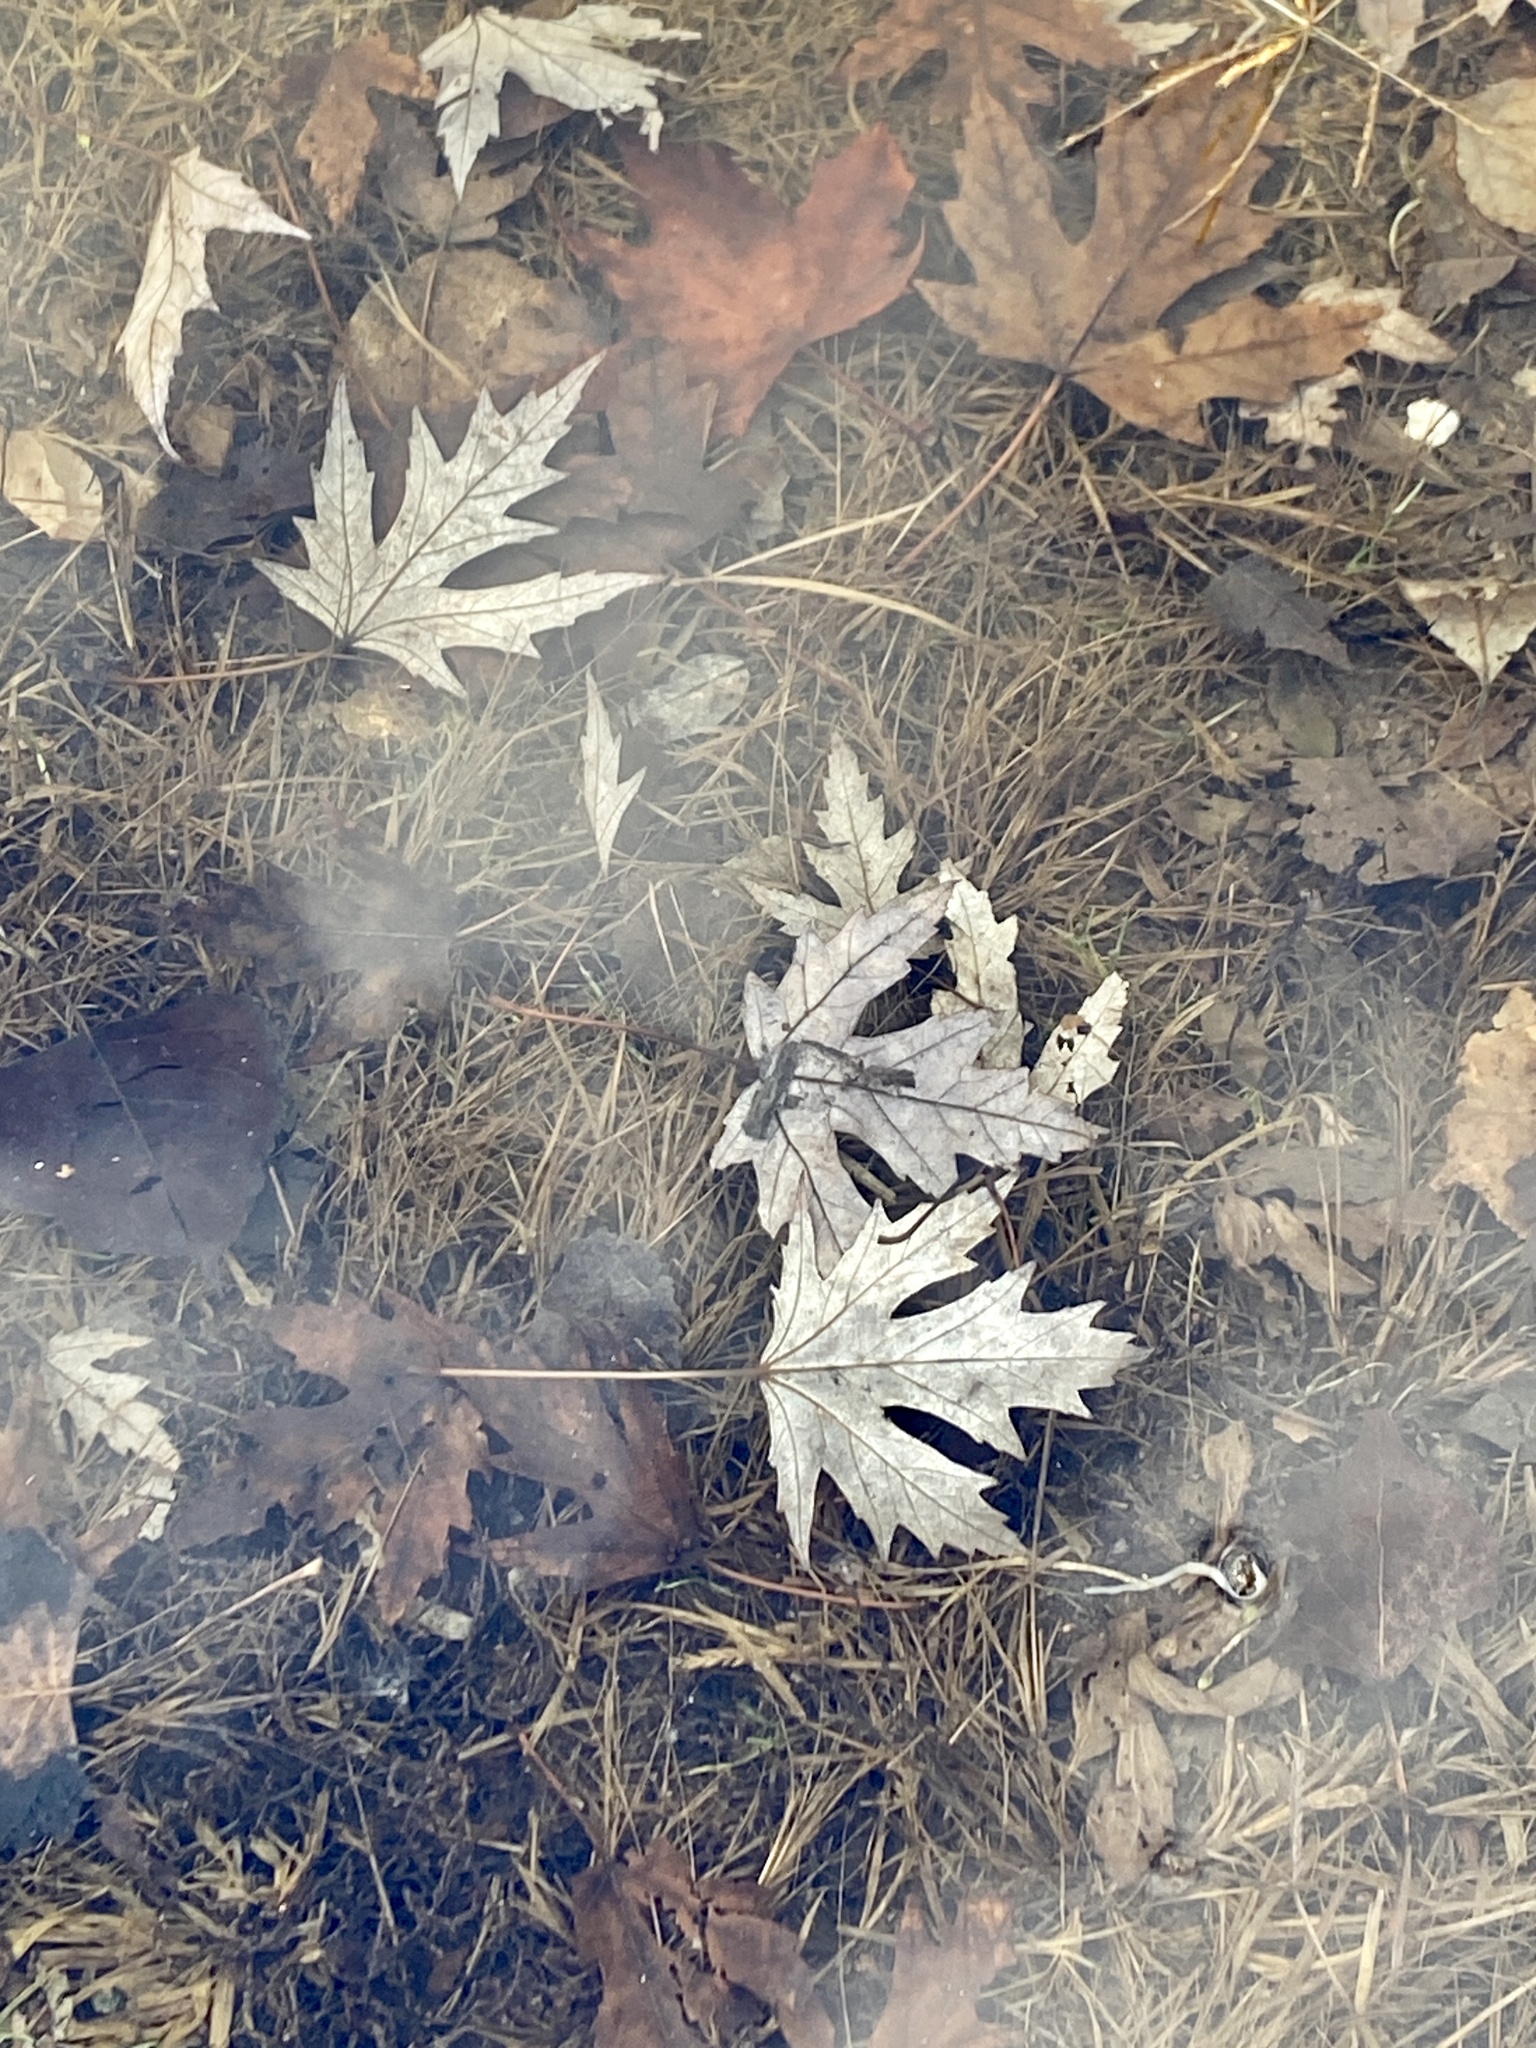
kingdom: Plantae
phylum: Tracheophyta
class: Magnoliopsida
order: Sapindales
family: Sapindaceae
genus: Acer
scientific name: Acer saccharinum
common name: Silver maple
